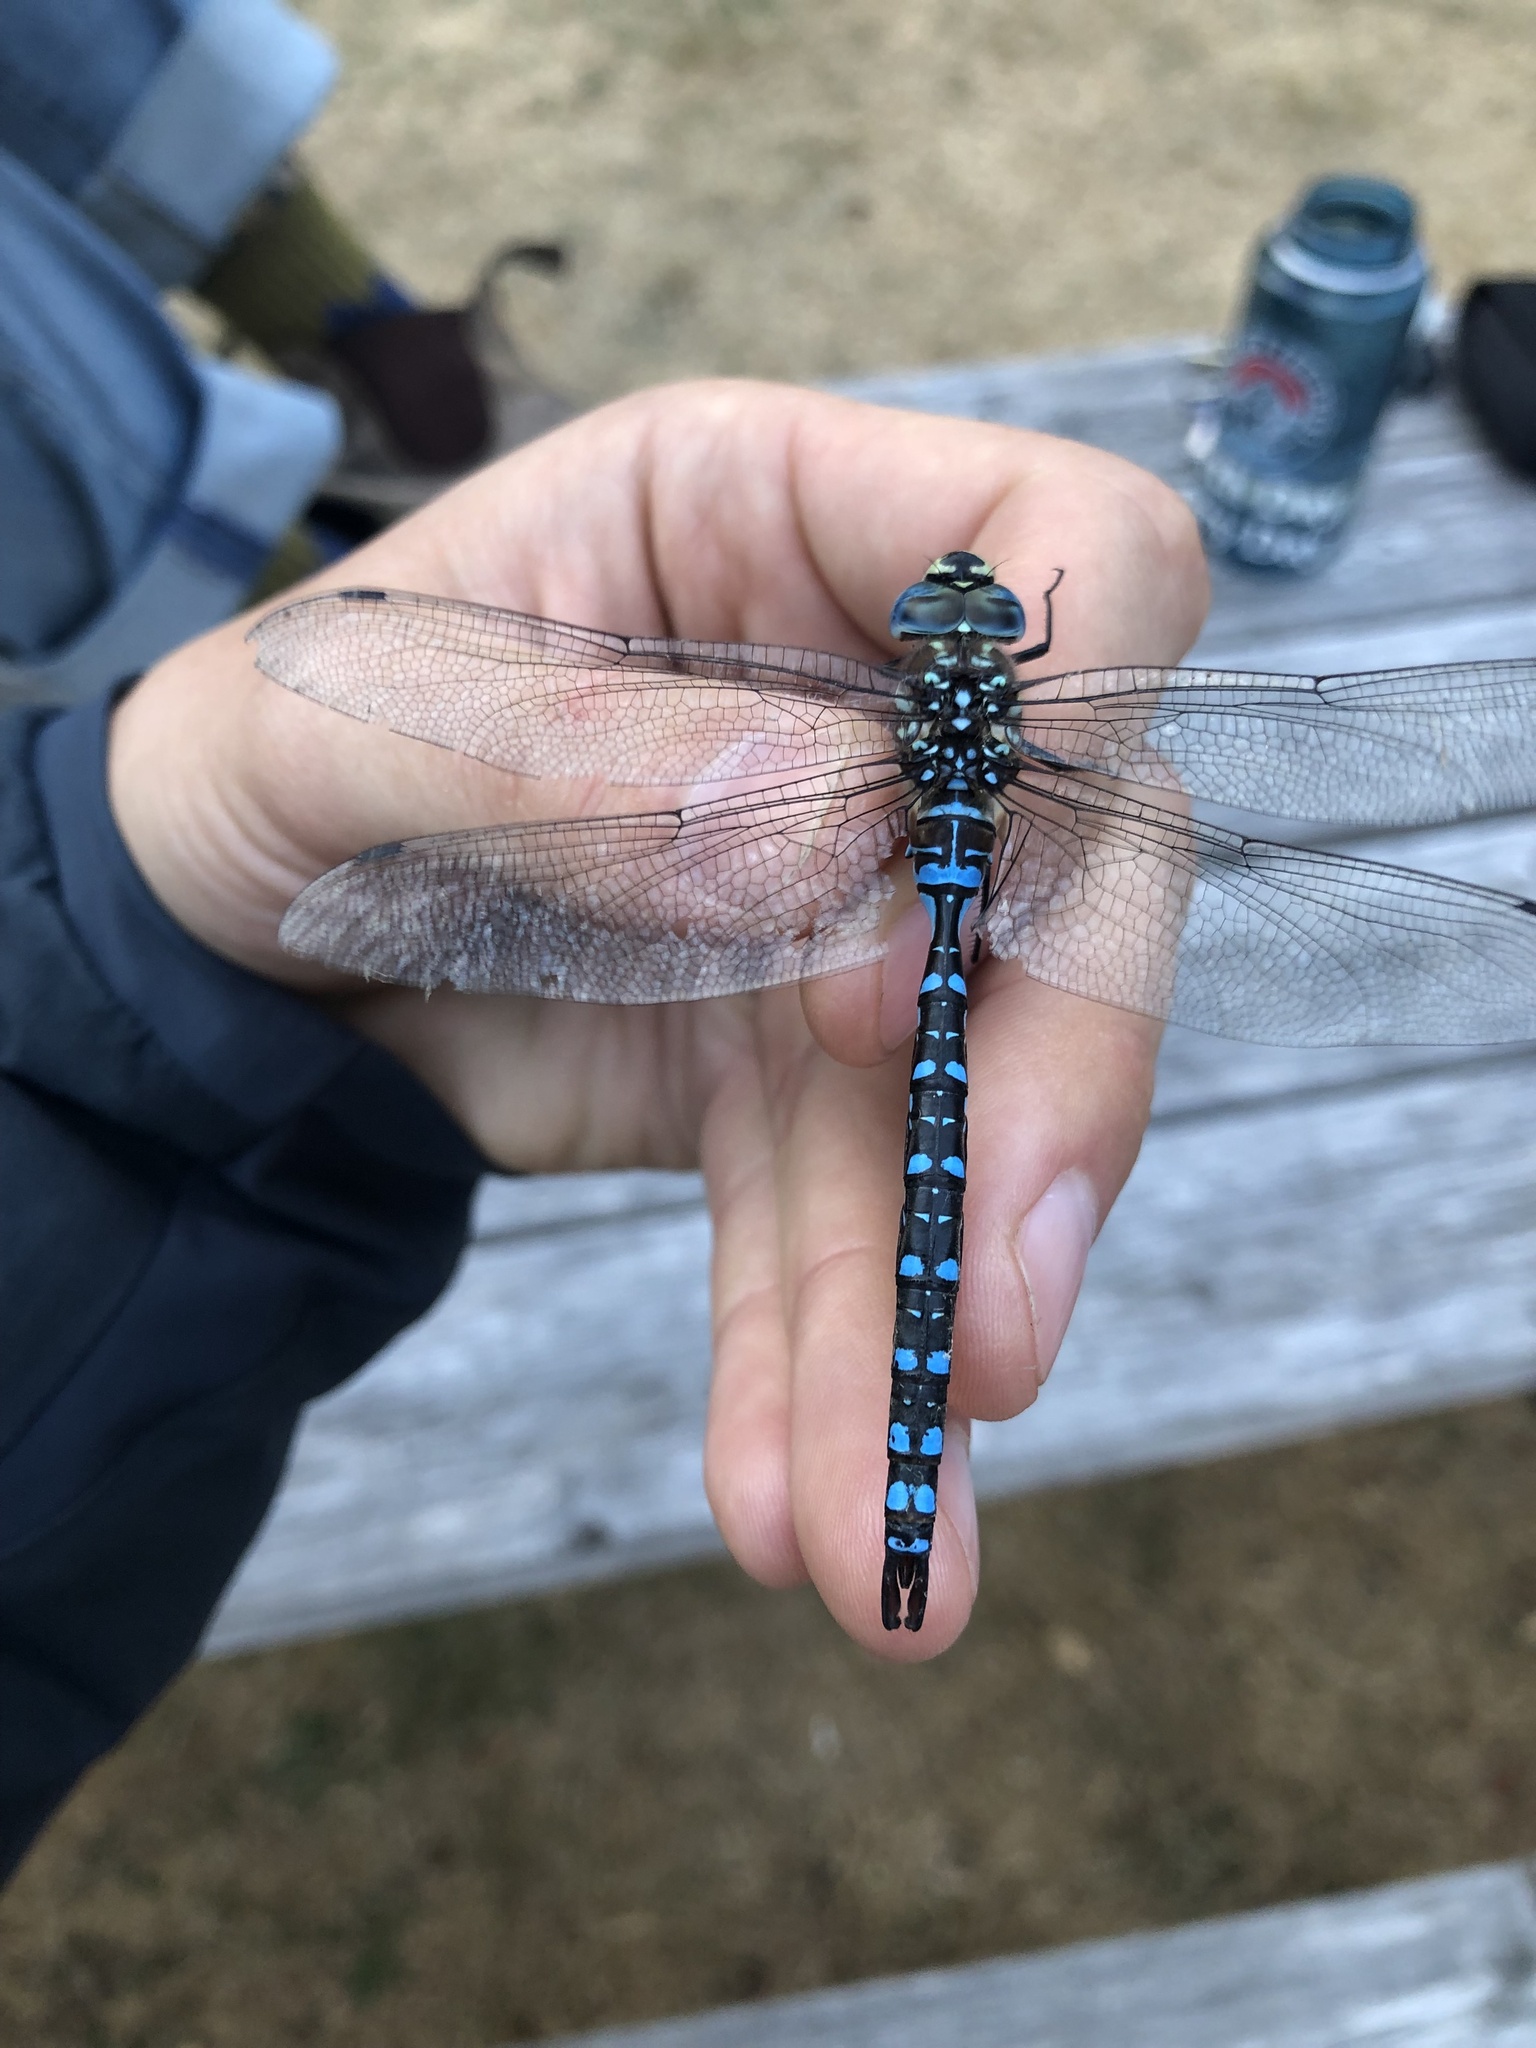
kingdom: Animalia
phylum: Arthropoda
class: Insecta
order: Odonata
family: Aeshnidae
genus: Aeshna
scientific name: Aeshna palmata
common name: Paddle-tailed darner
